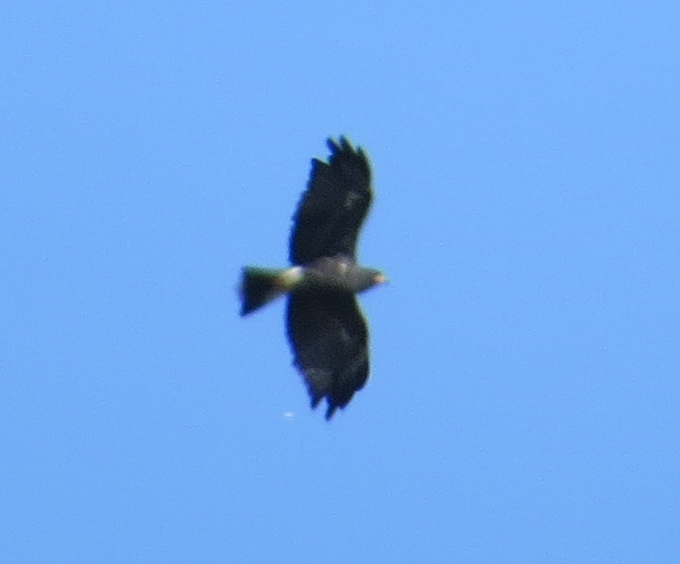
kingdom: Animalia
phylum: Chordata
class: Aves
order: Accipitriformes
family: Accipitridae
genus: Rostrhamus
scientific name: Rostrhamus sociabilis
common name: Snail kite
